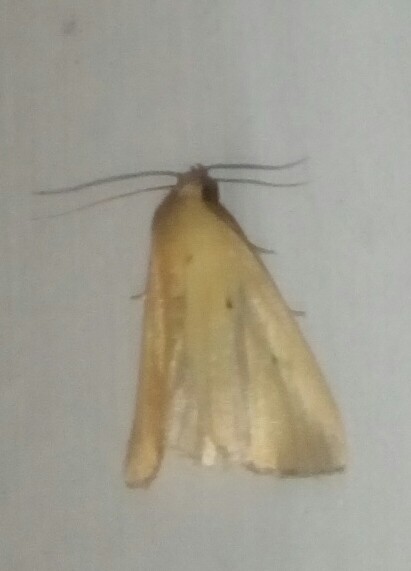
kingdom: Animalia
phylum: Arthropoda
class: Insecta
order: Lepidoptera
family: Noctuidae
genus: Marimatha
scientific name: Marimatha nigrofimbria
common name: Black-bordered lemon moth
